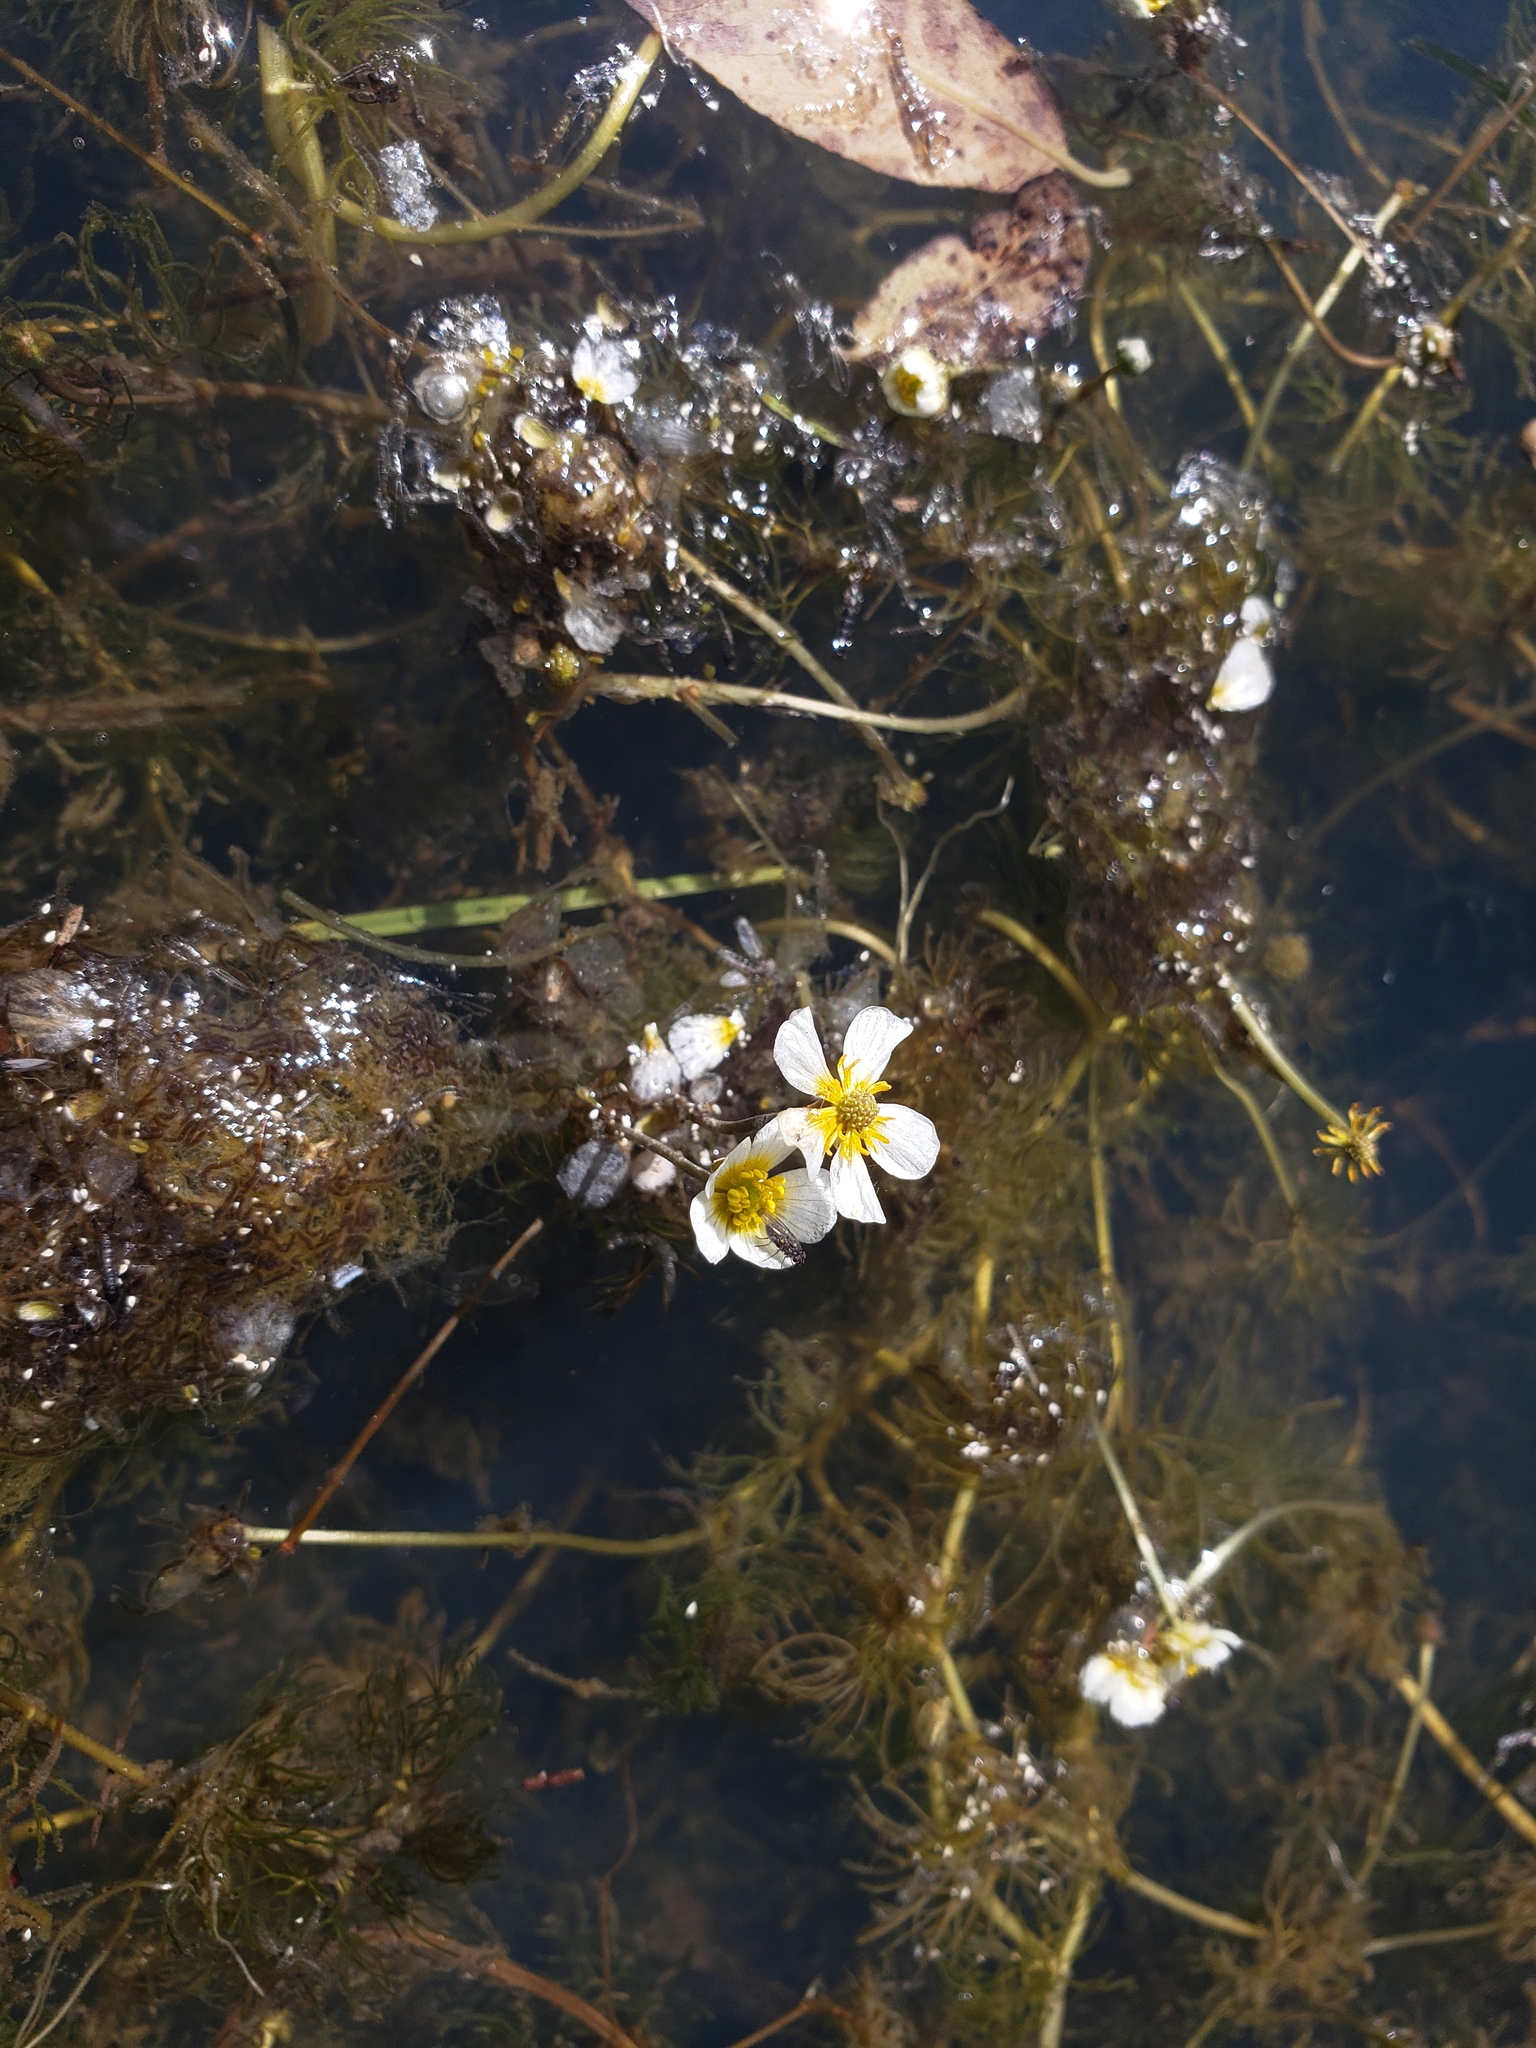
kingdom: Plantae
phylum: Tracheophyta
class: Magnoliopsida
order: Ranunculales
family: Ranunculaceae
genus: Ranunculus
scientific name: Ranunculus aquatilis
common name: Common water-crowfoot
